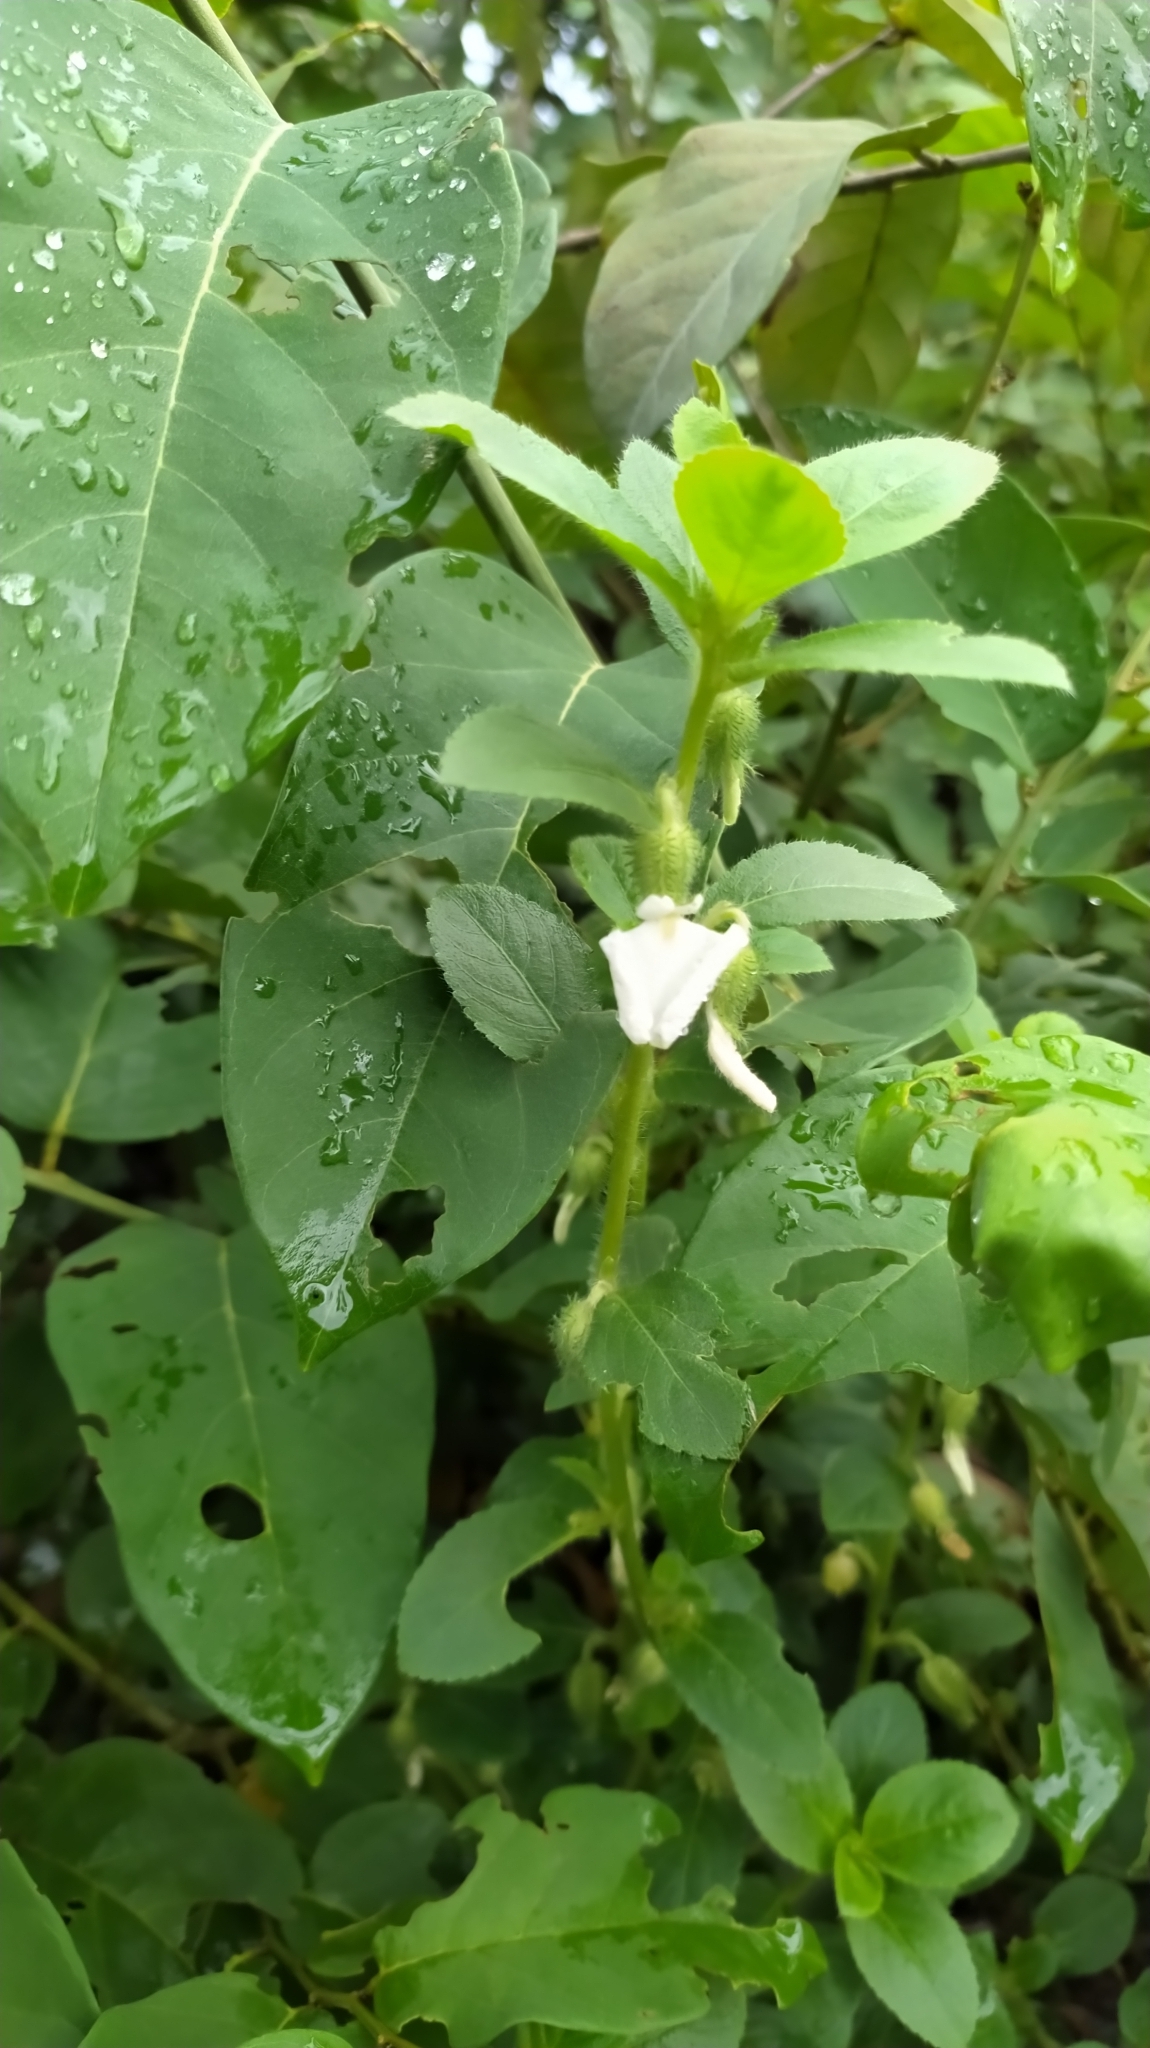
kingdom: Plantae
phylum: Tracheophyta
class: Magnoliopsida
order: Malpighiales
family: Violaceae
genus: Pombalia
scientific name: Pombalia calceolaria
